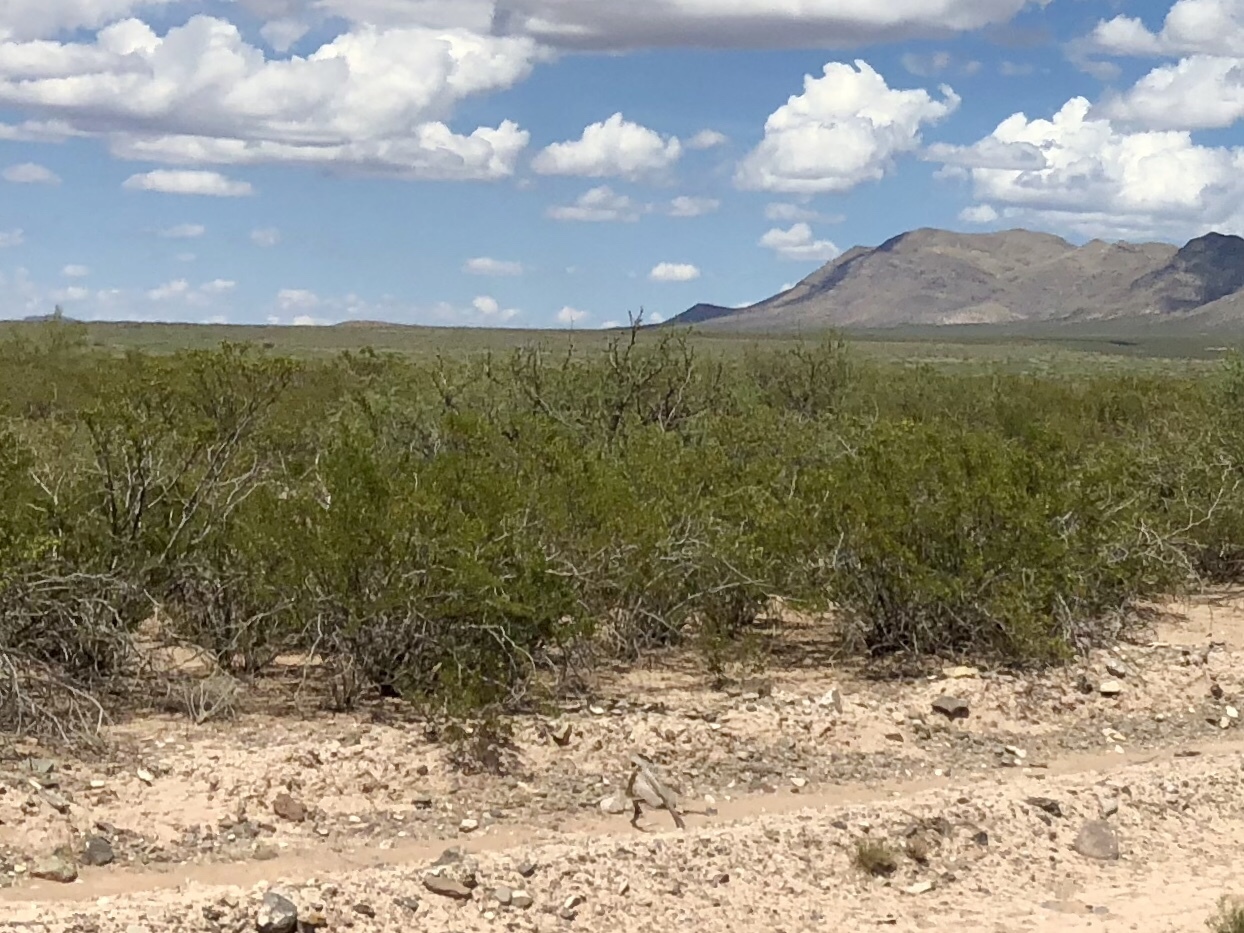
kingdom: Plantae
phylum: Tracheophyta
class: Magnoliopsida
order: Zygophyllales
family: Zygophyllaceae
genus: Larrea
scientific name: Larrea tridentata
